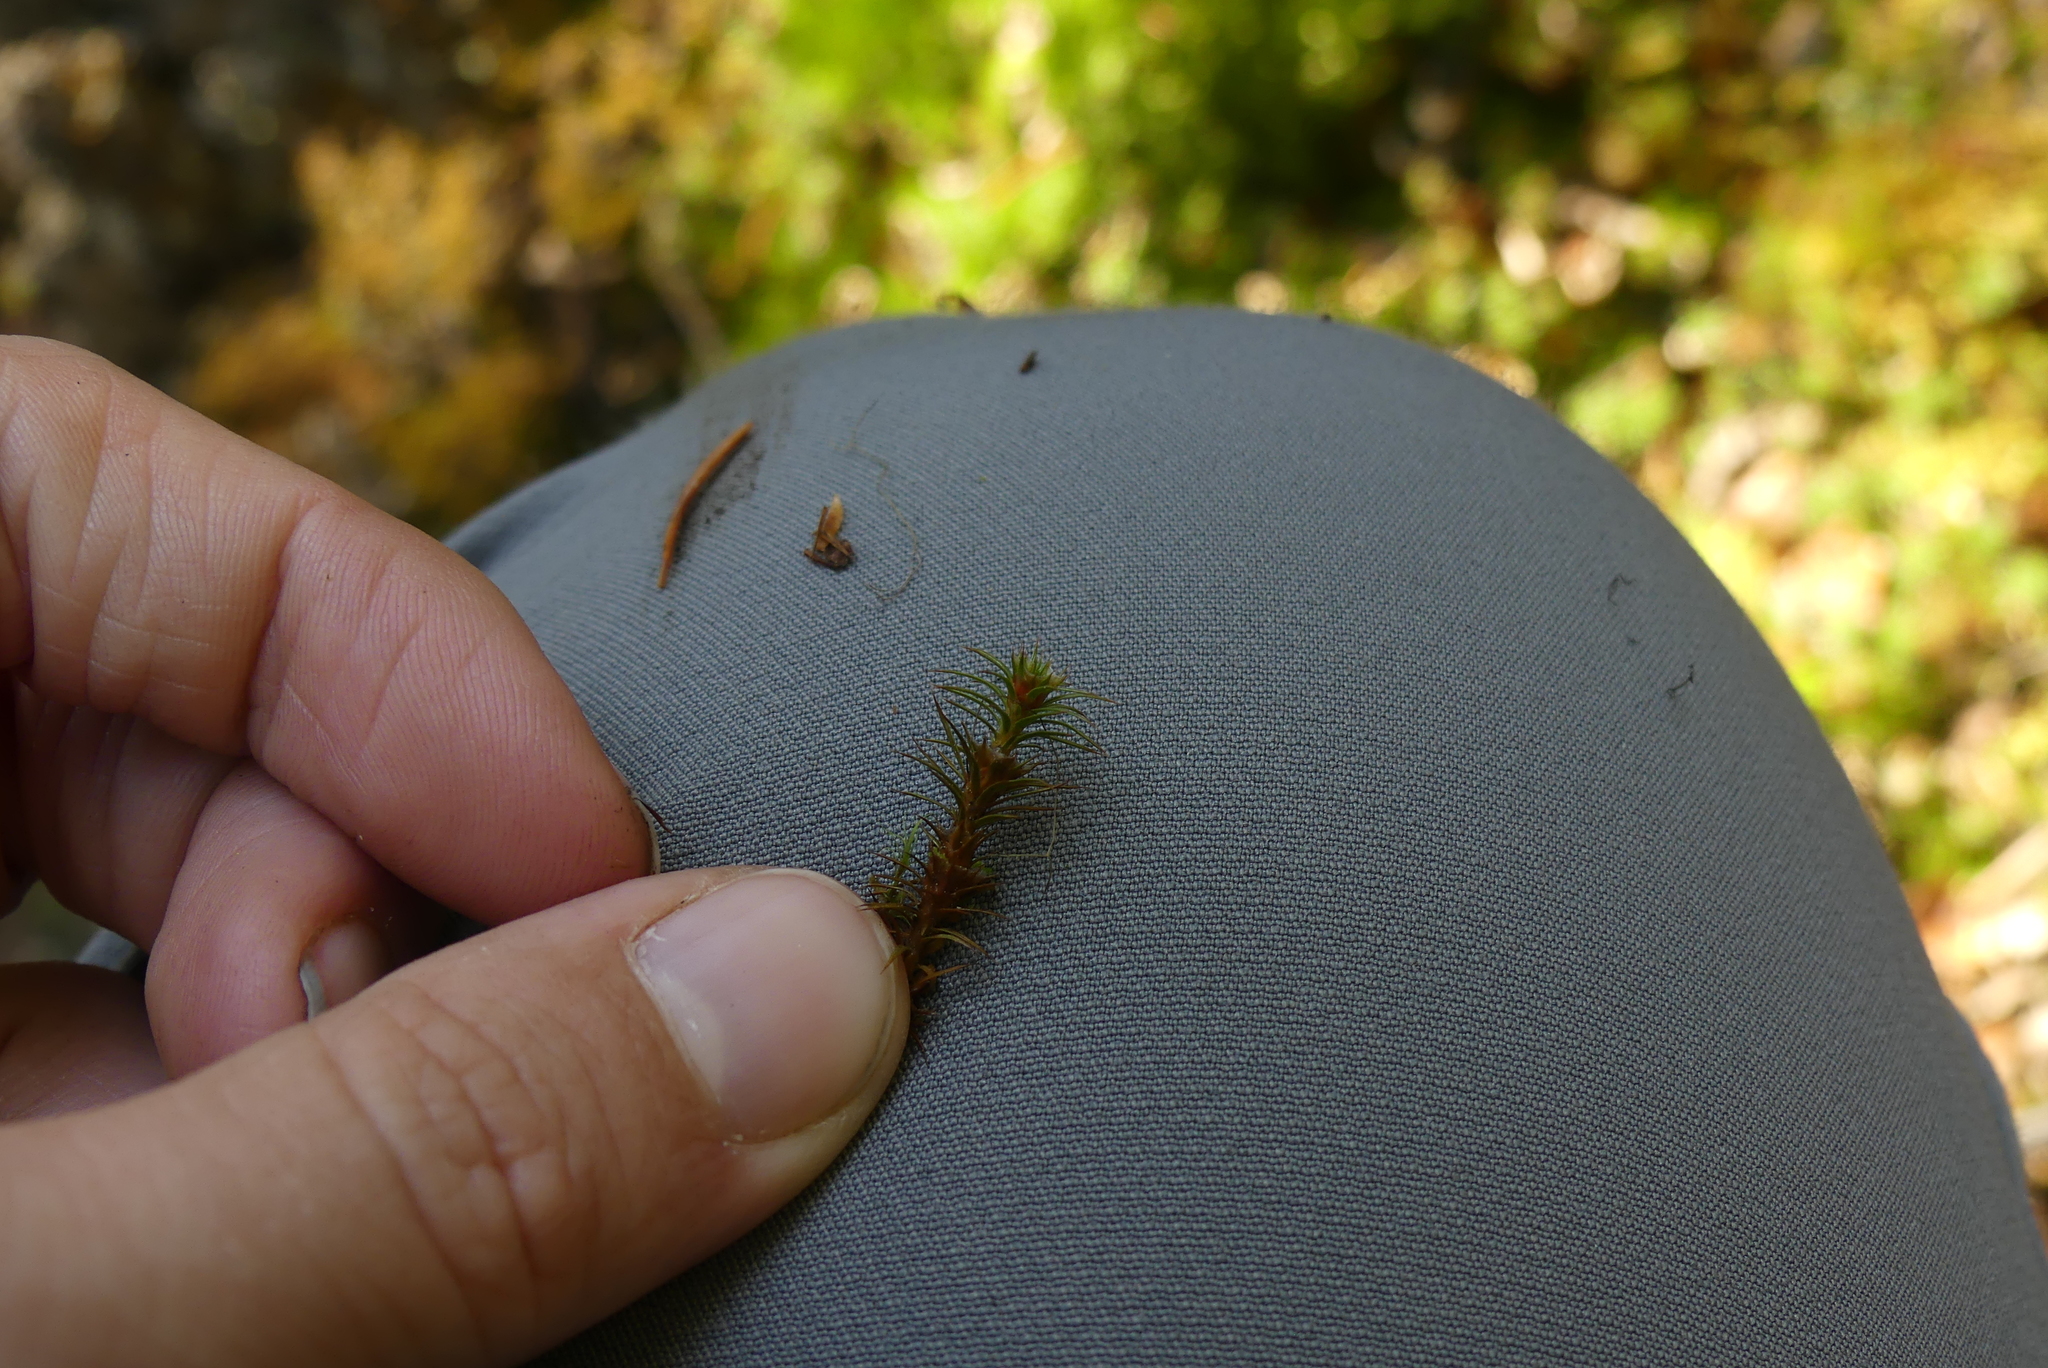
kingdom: Plantae
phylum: Bryophyta
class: Polytrichopsida
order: Polytrichales
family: Polytrichaceae
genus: Polytrichum
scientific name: Polytrichum juniperinum
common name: Juniper haircap moss
